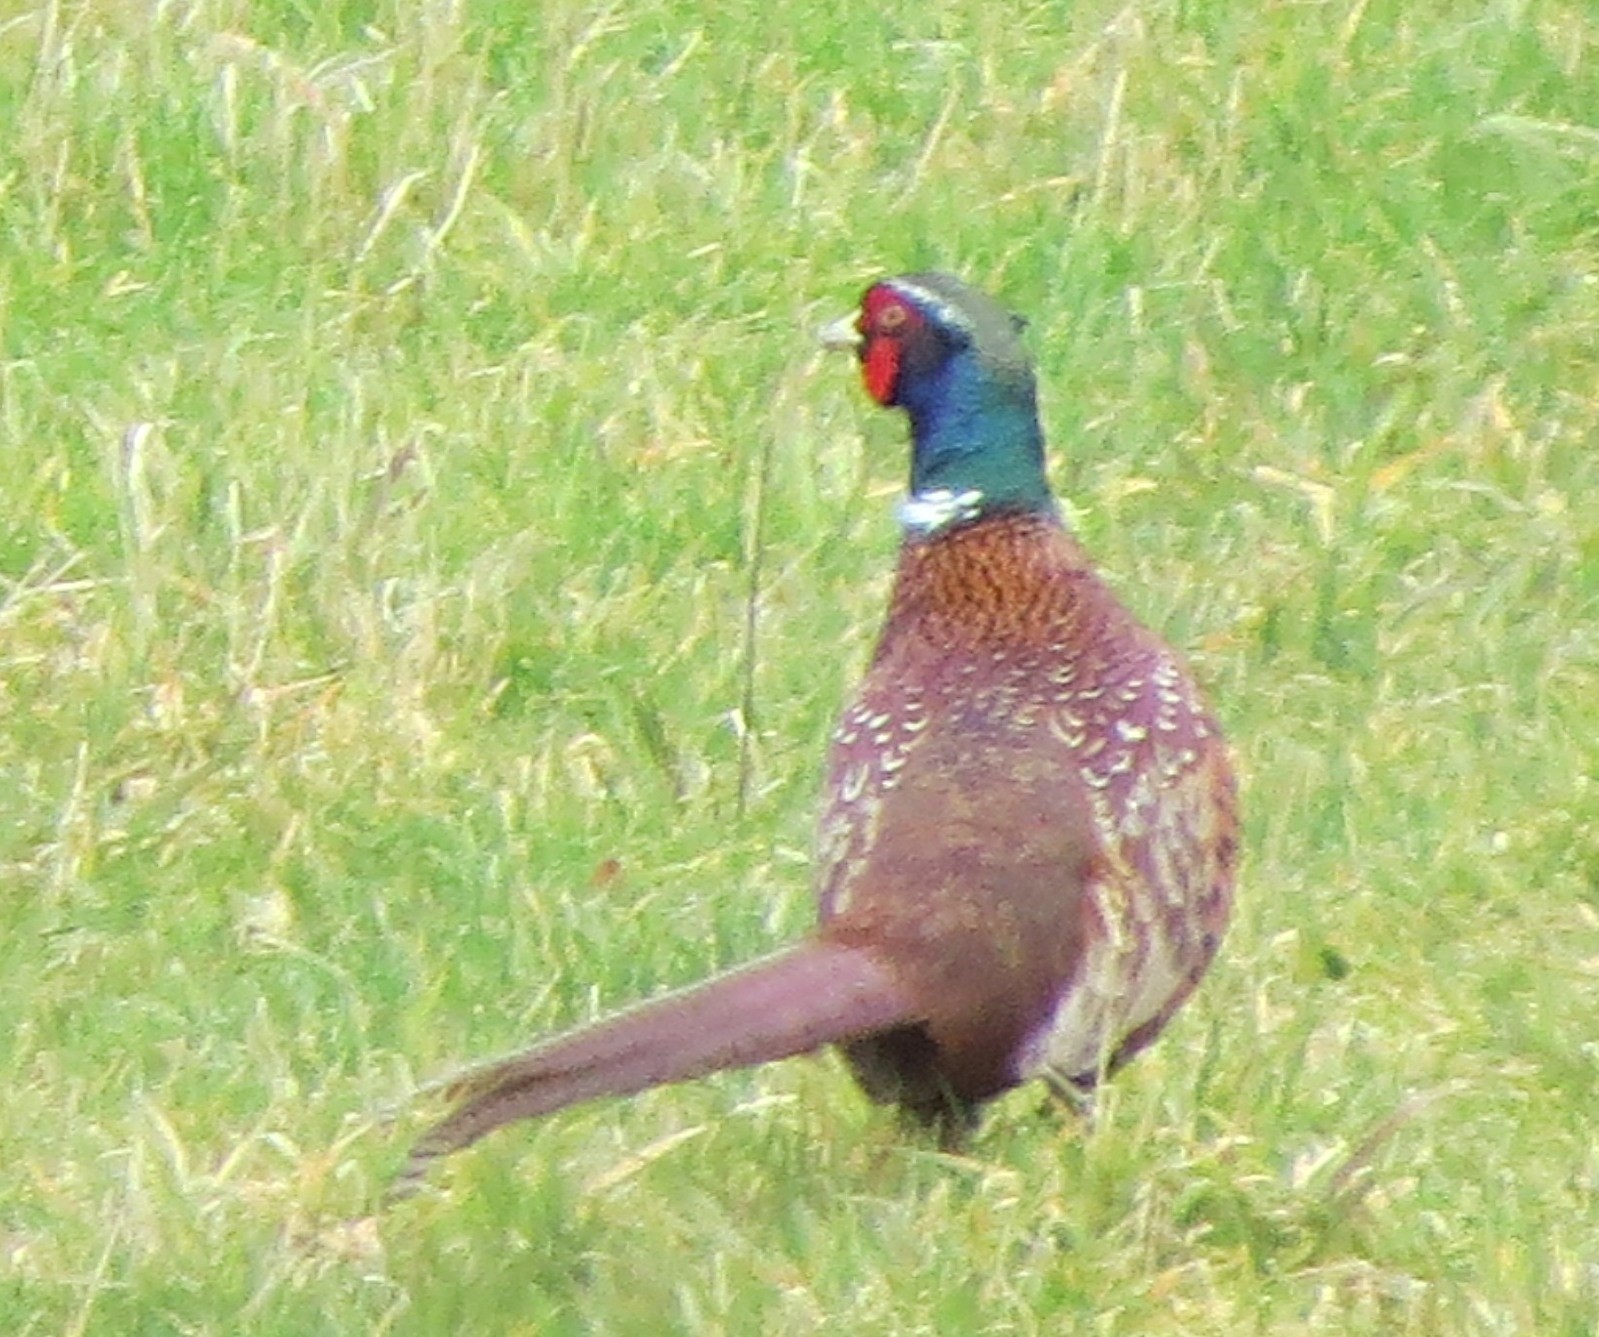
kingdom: Animalia
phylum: Chordata
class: Aves
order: Galliformes
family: Phasianidae
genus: Phasianus
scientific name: Phasianus colchicus
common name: Common pheasant
